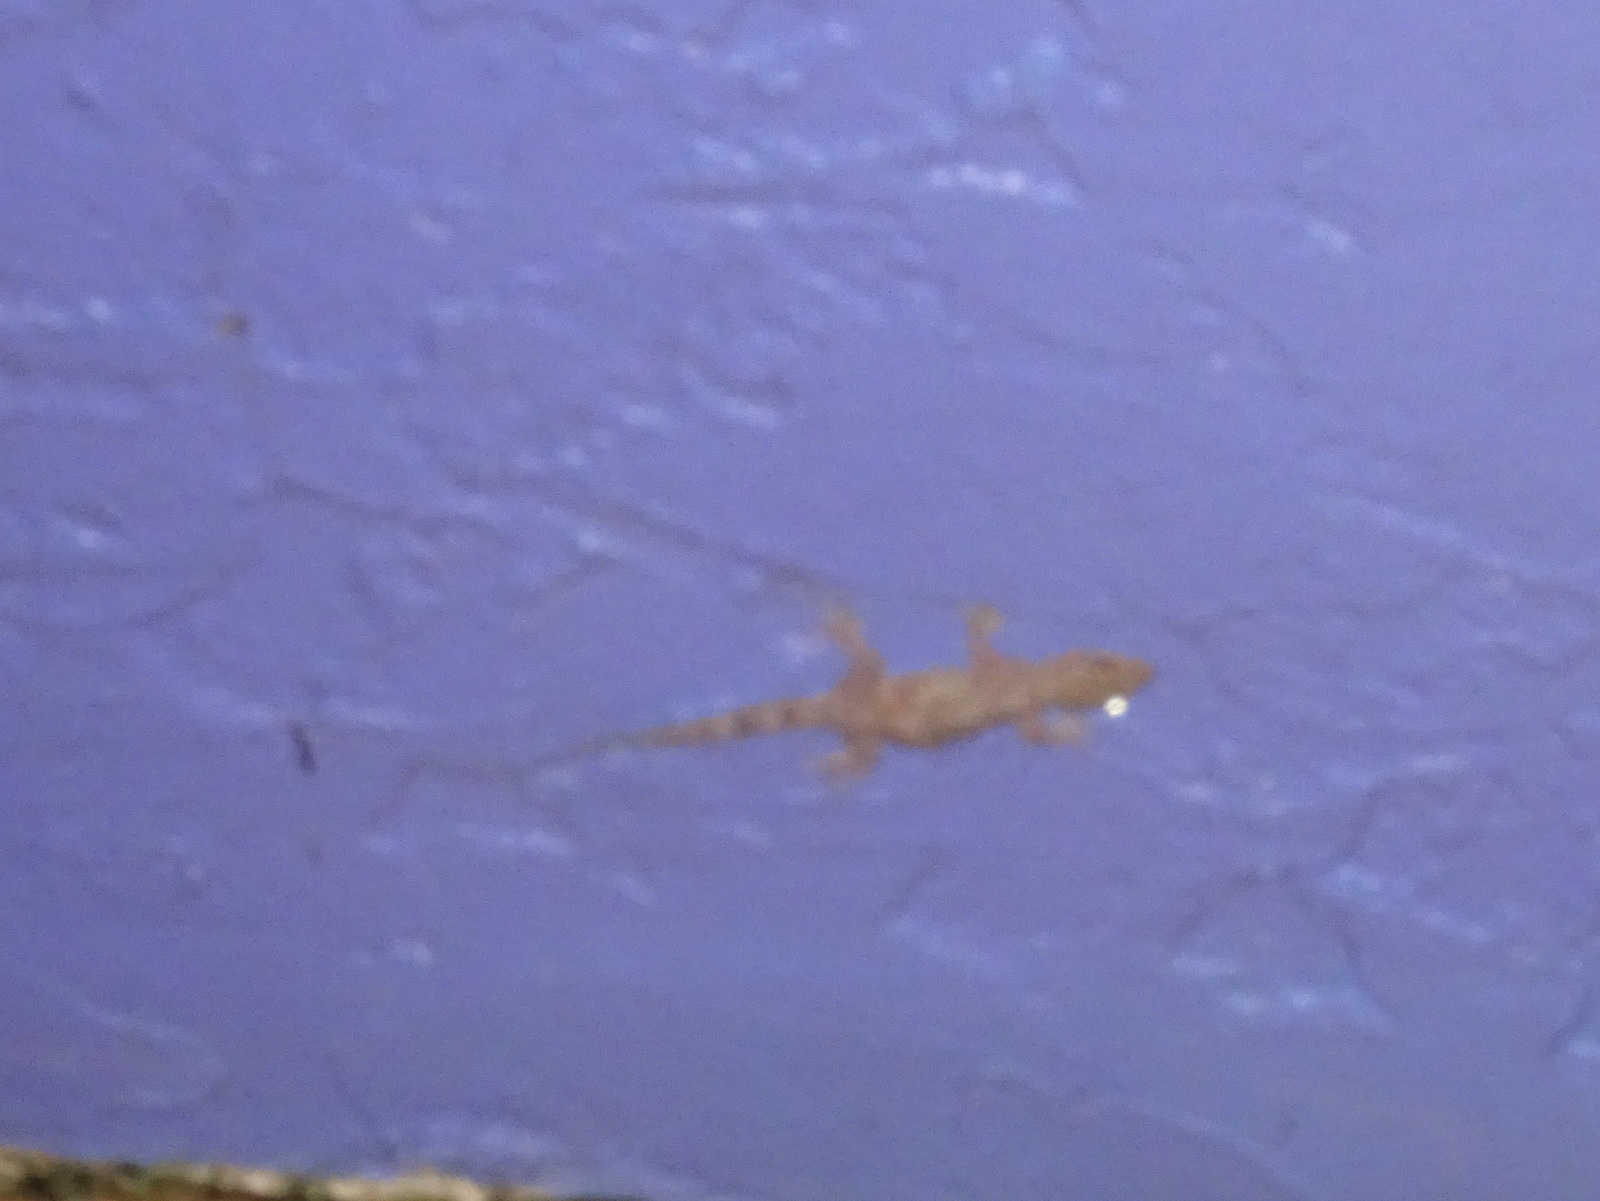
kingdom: Animalia
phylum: Chordata
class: Squamata
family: Gekkonidae
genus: Hemidactylus
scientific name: Hemidactylus
